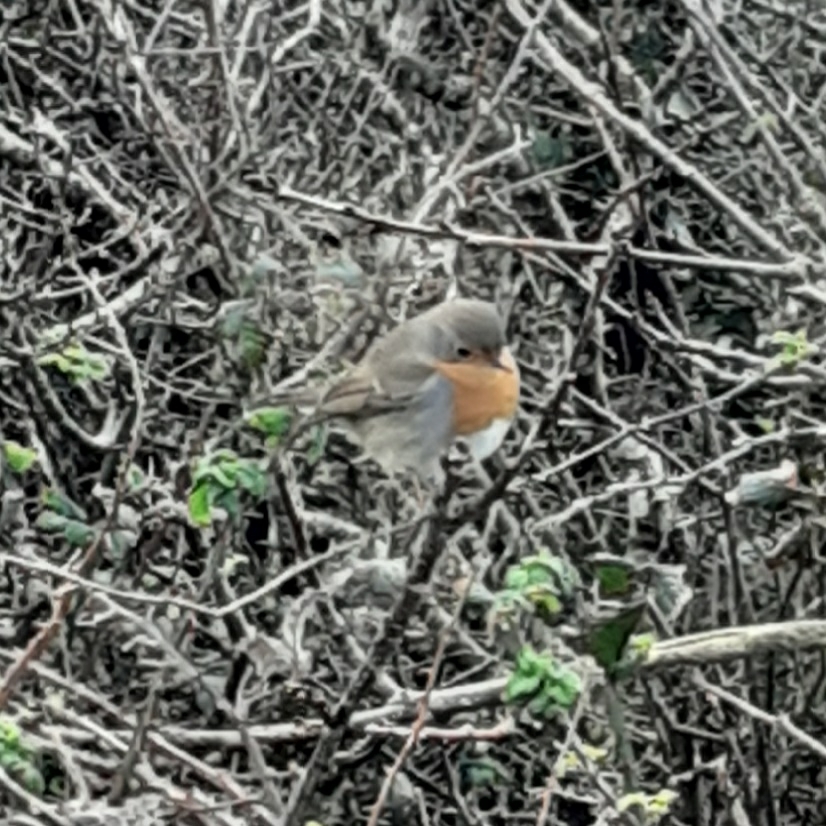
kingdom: Animalia
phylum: Chordata
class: Aves
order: Passeriformes
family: Muscicapidae
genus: Erithacus
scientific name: Erithacus rubecula
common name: European robin
